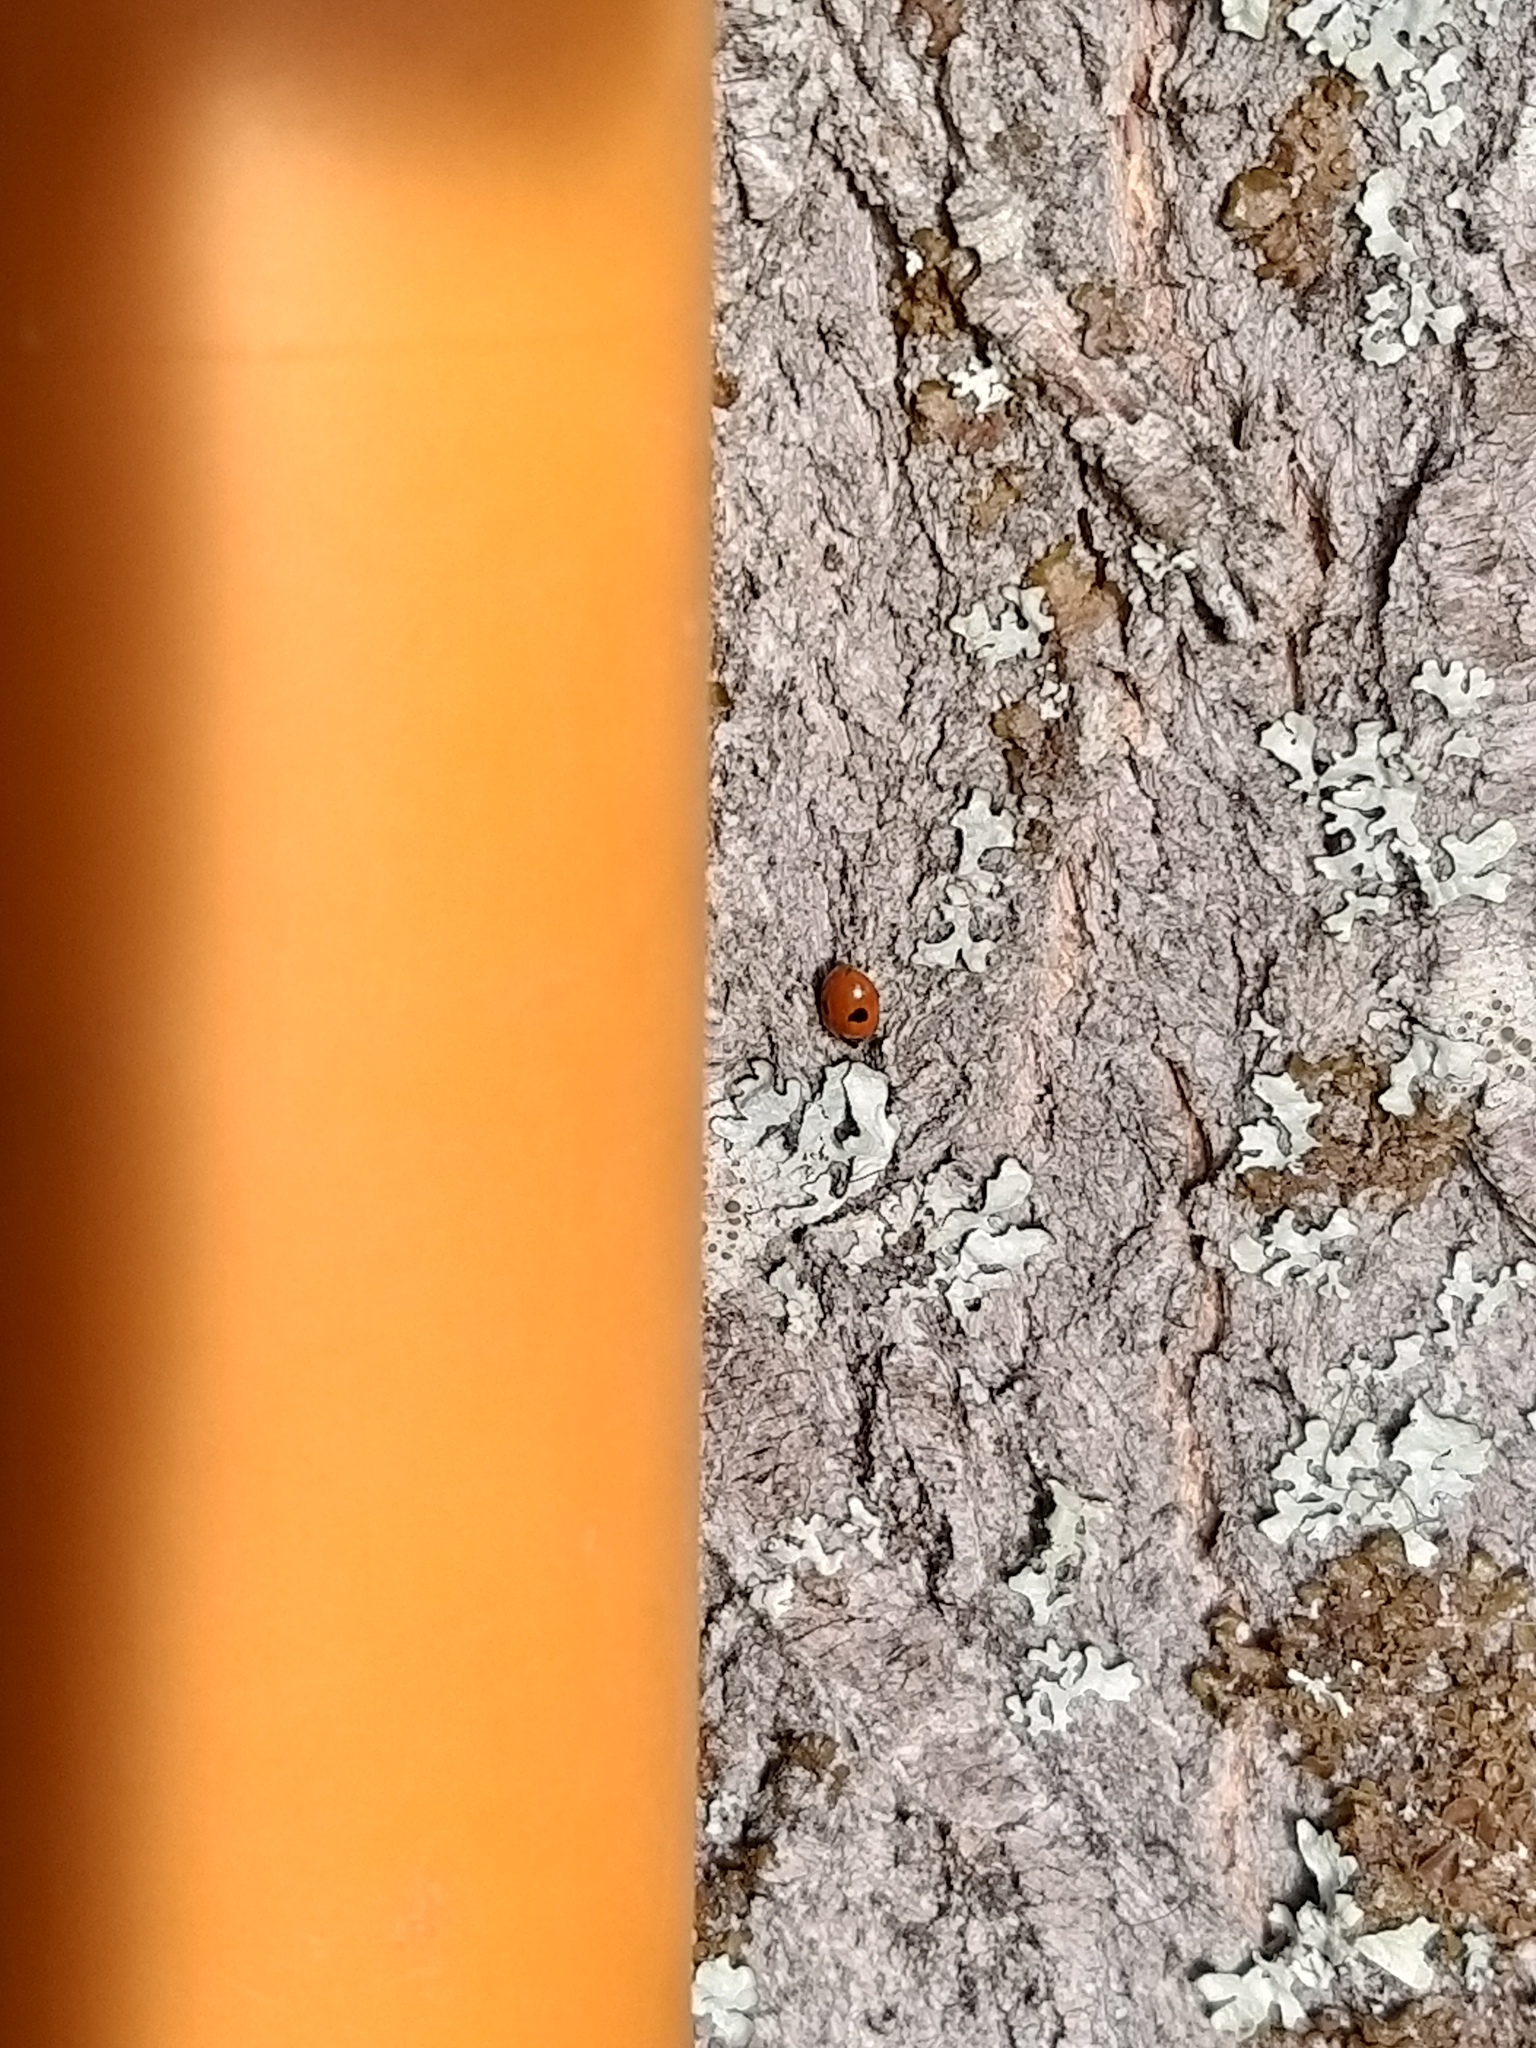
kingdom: Animalia
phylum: Arthropoda
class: Insecta
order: Coleoptera
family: Coccinellidae
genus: Adalia
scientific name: Adalia bipunctata
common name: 2-spot ladybird
